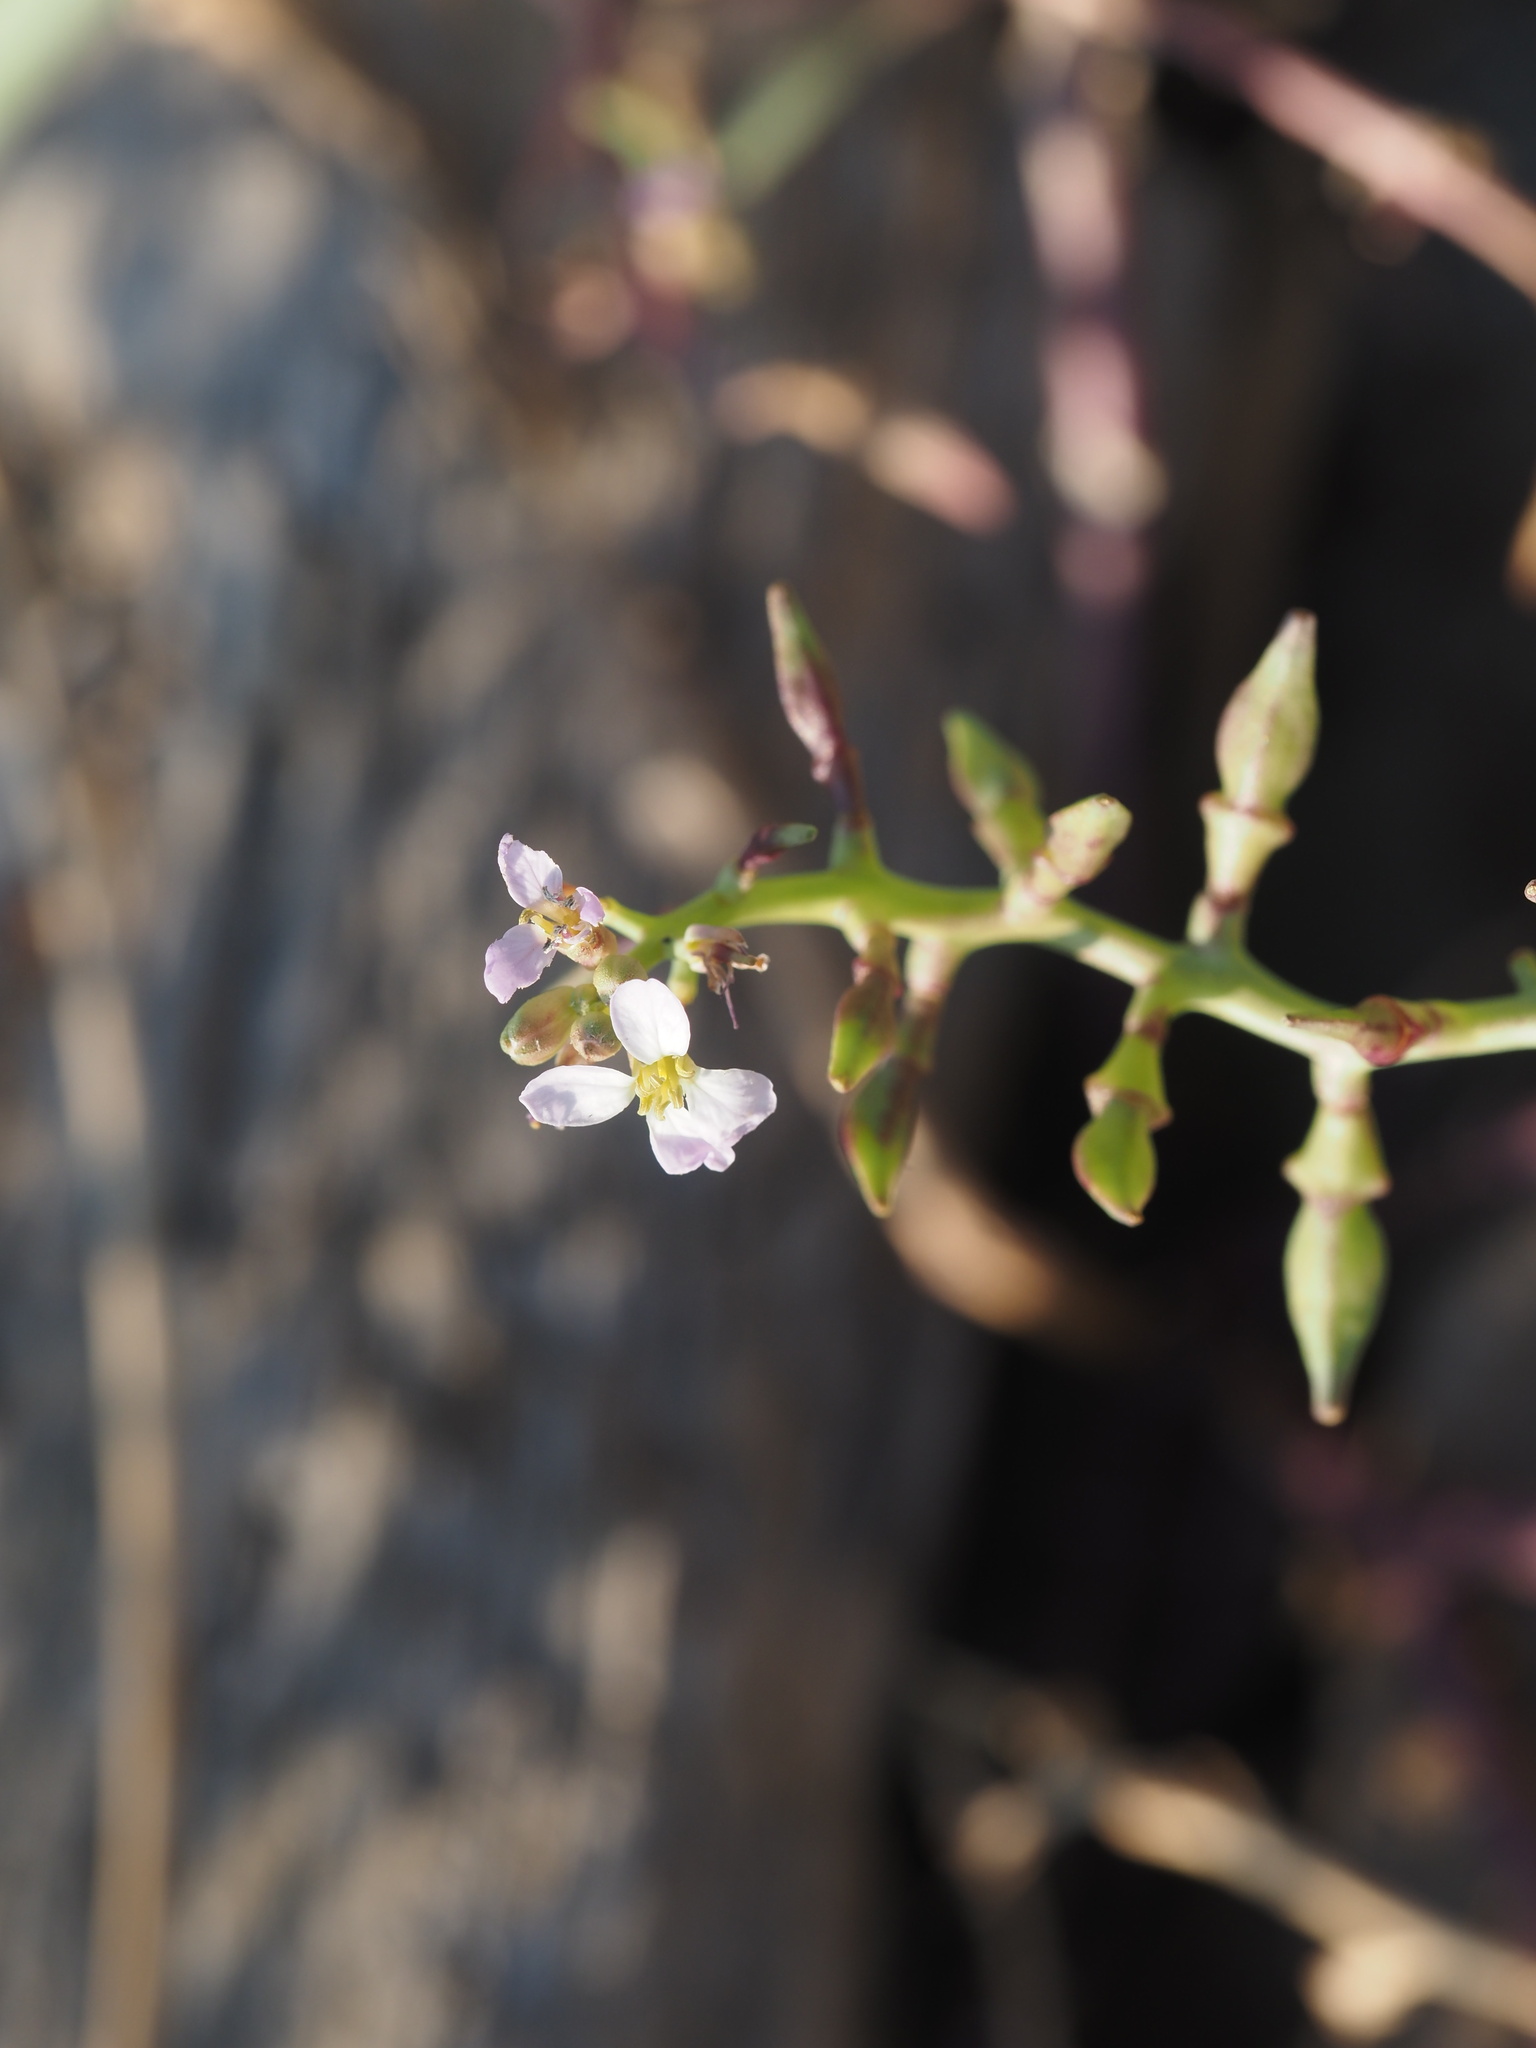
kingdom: Plantae
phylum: Tracheophyta
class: Magnoliopsida
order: Brassicales
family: Brassicaceae
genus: Cakile
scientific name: Cakile maritima
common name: Sea rocket
